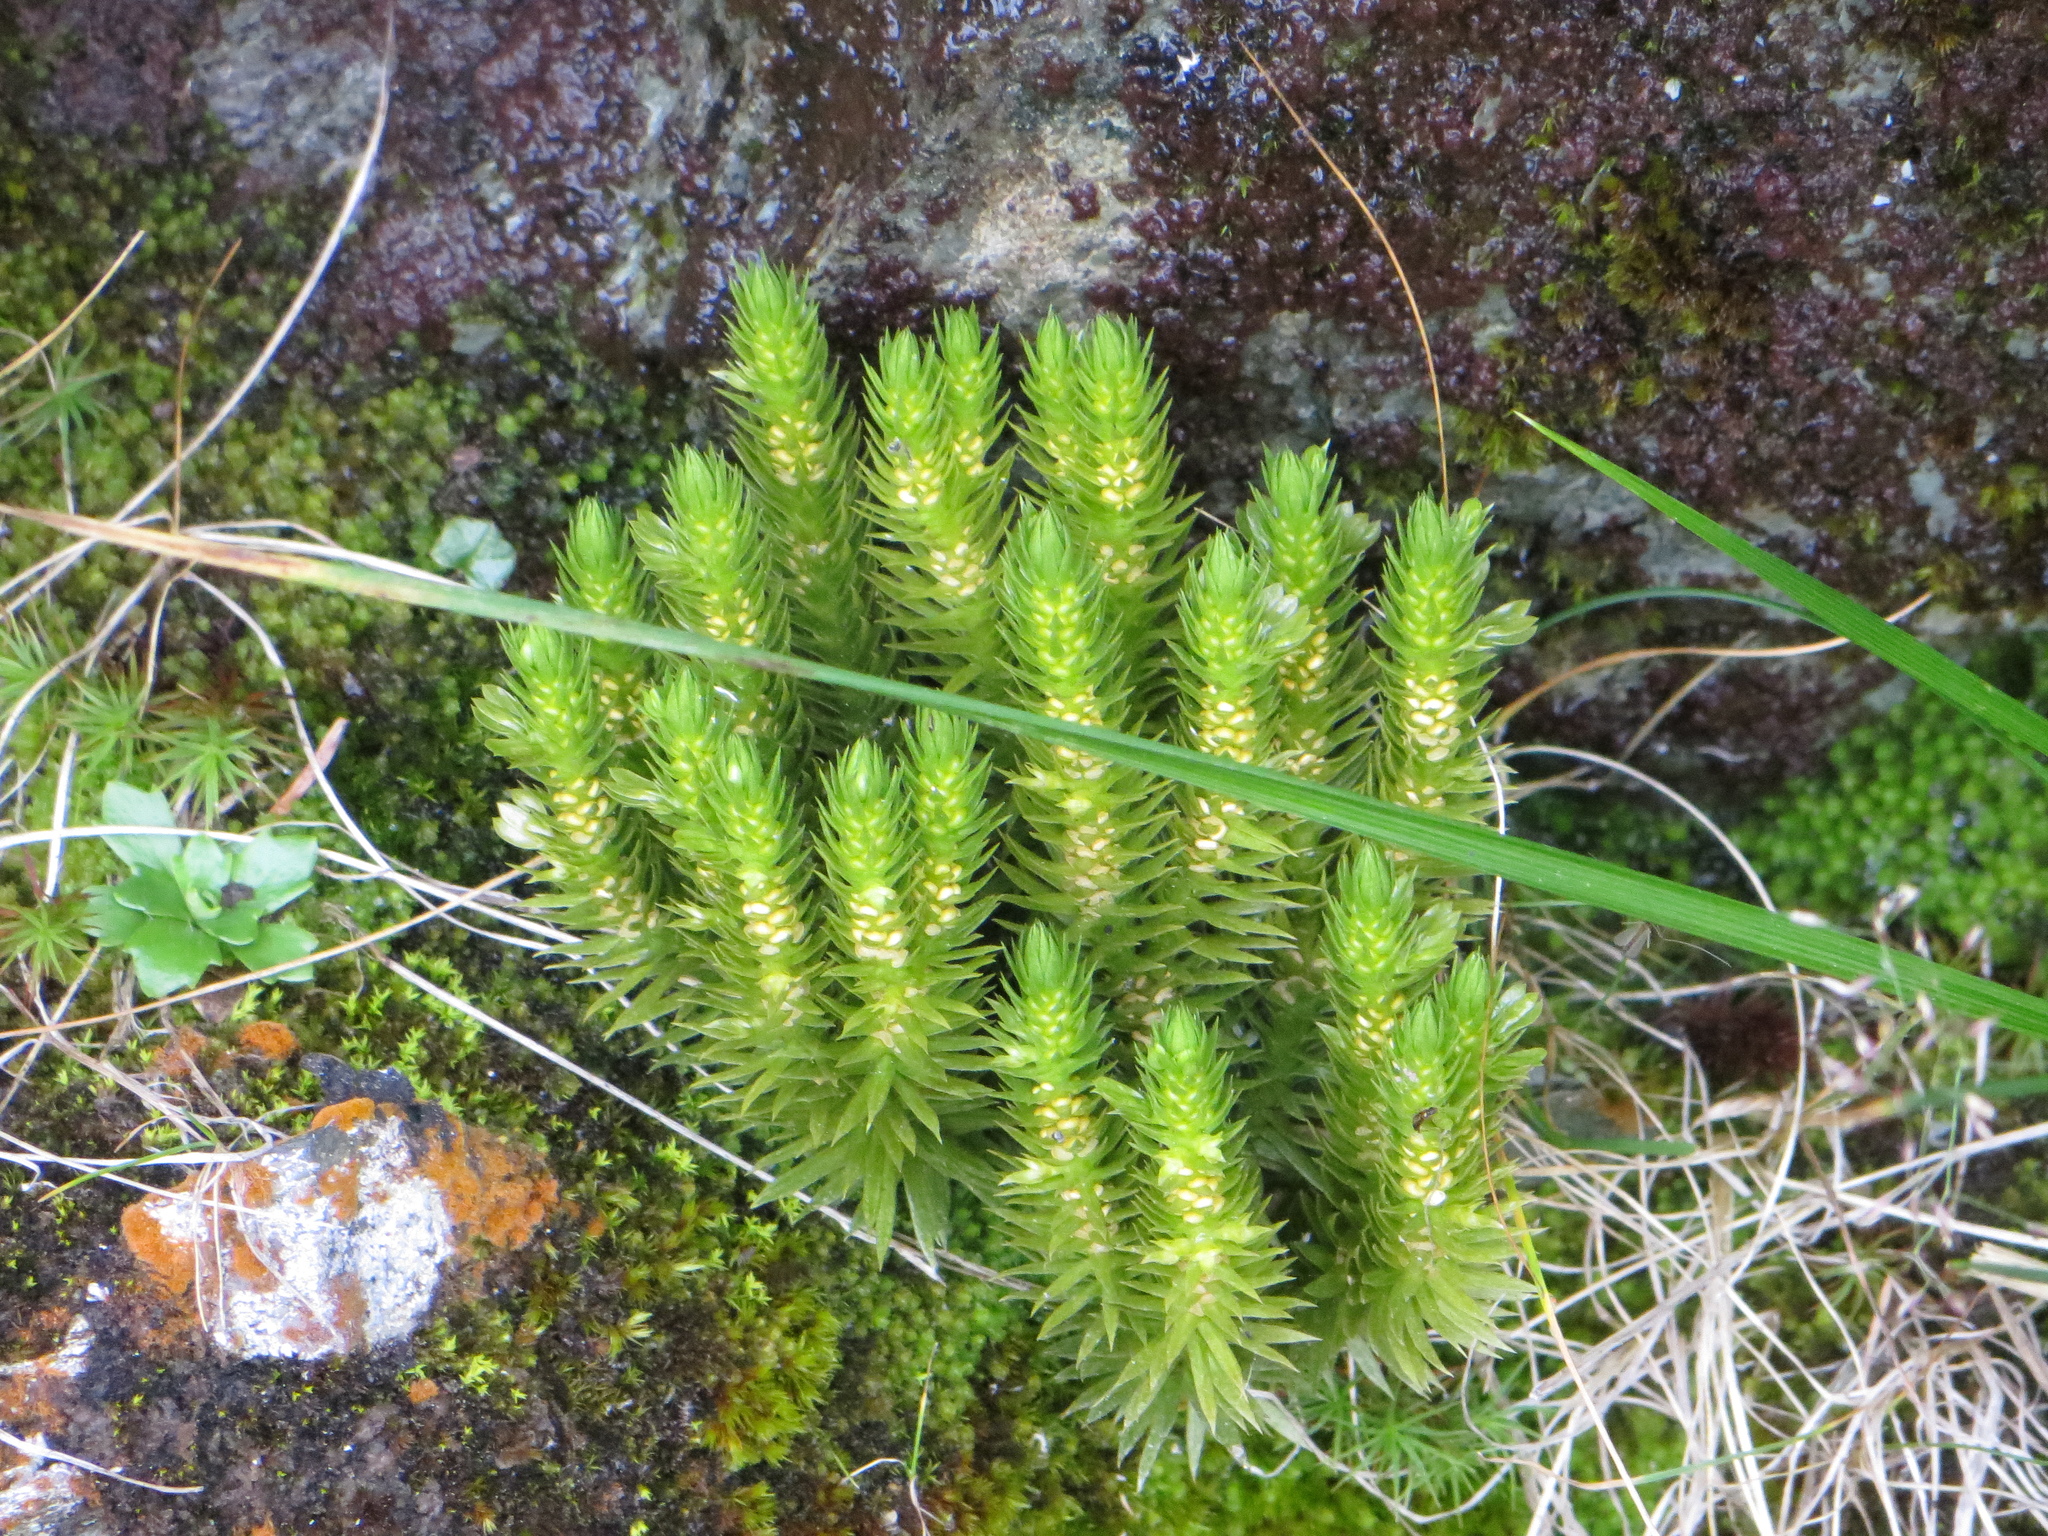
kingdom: Plantae
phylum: Tracheophyta
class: Lycopodiopsida
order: Lycopodiales
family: Lycopodiaceae
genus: Huperzia
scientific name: Huperzia selago
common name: Northern firmoss
